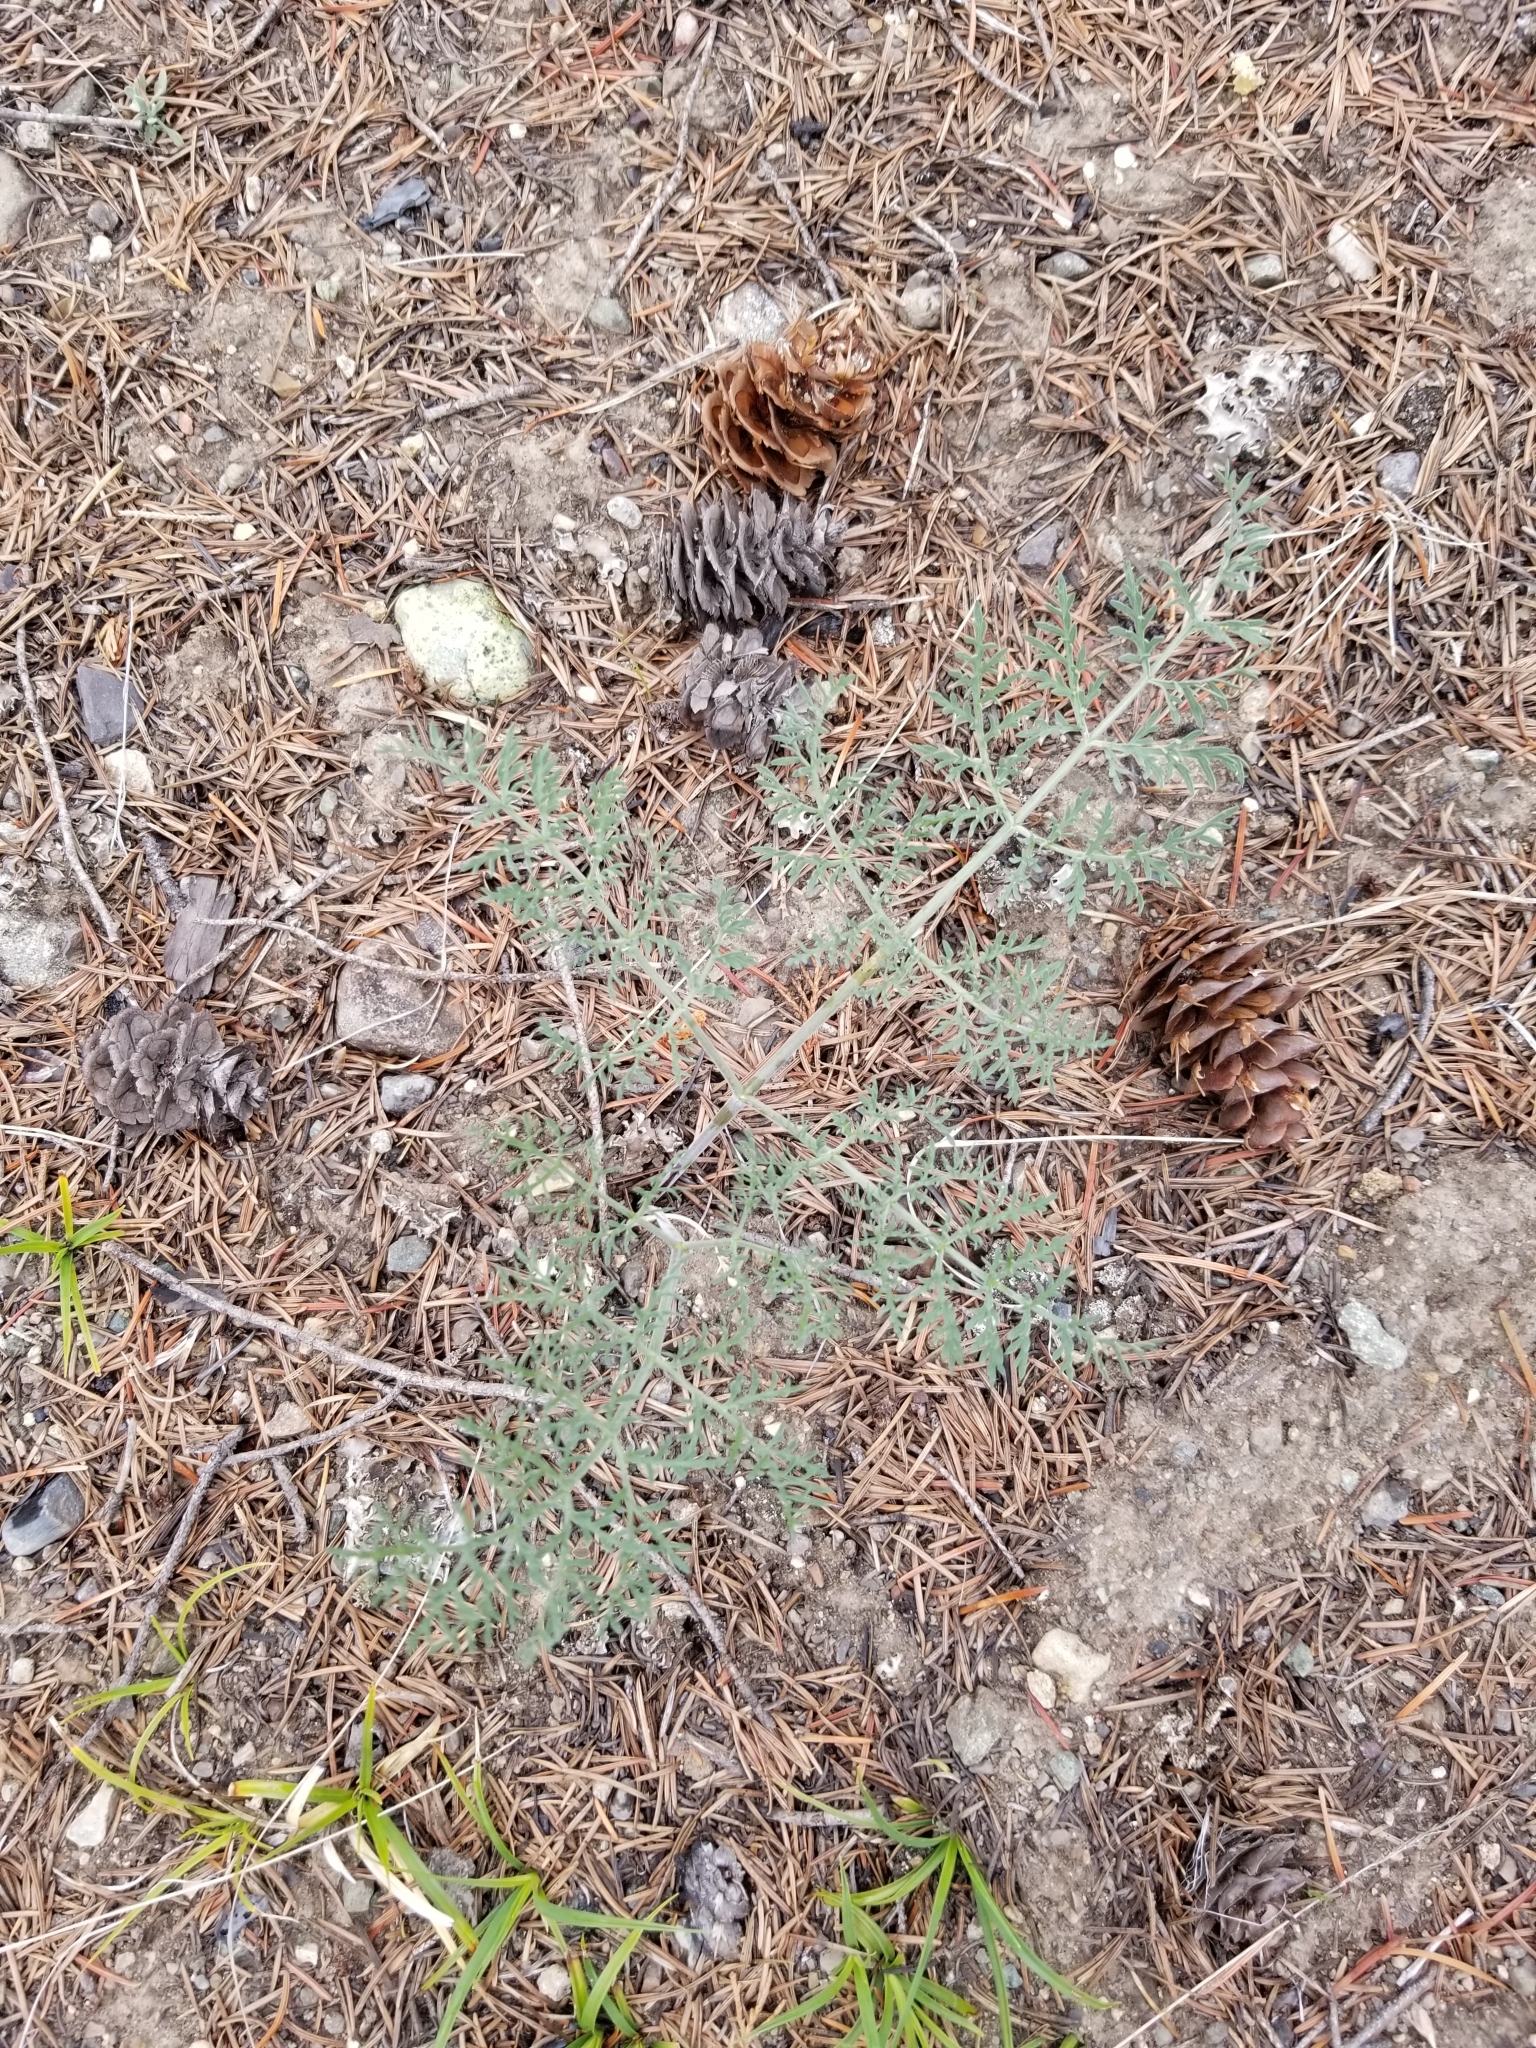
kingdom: Plantae
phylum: Tracheophyta
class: Magnoliopsida
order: Apiales
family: Apiaceae
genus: Lomatium
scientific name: Lomatium macrocarpum
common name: Big-seed biscuitroot
